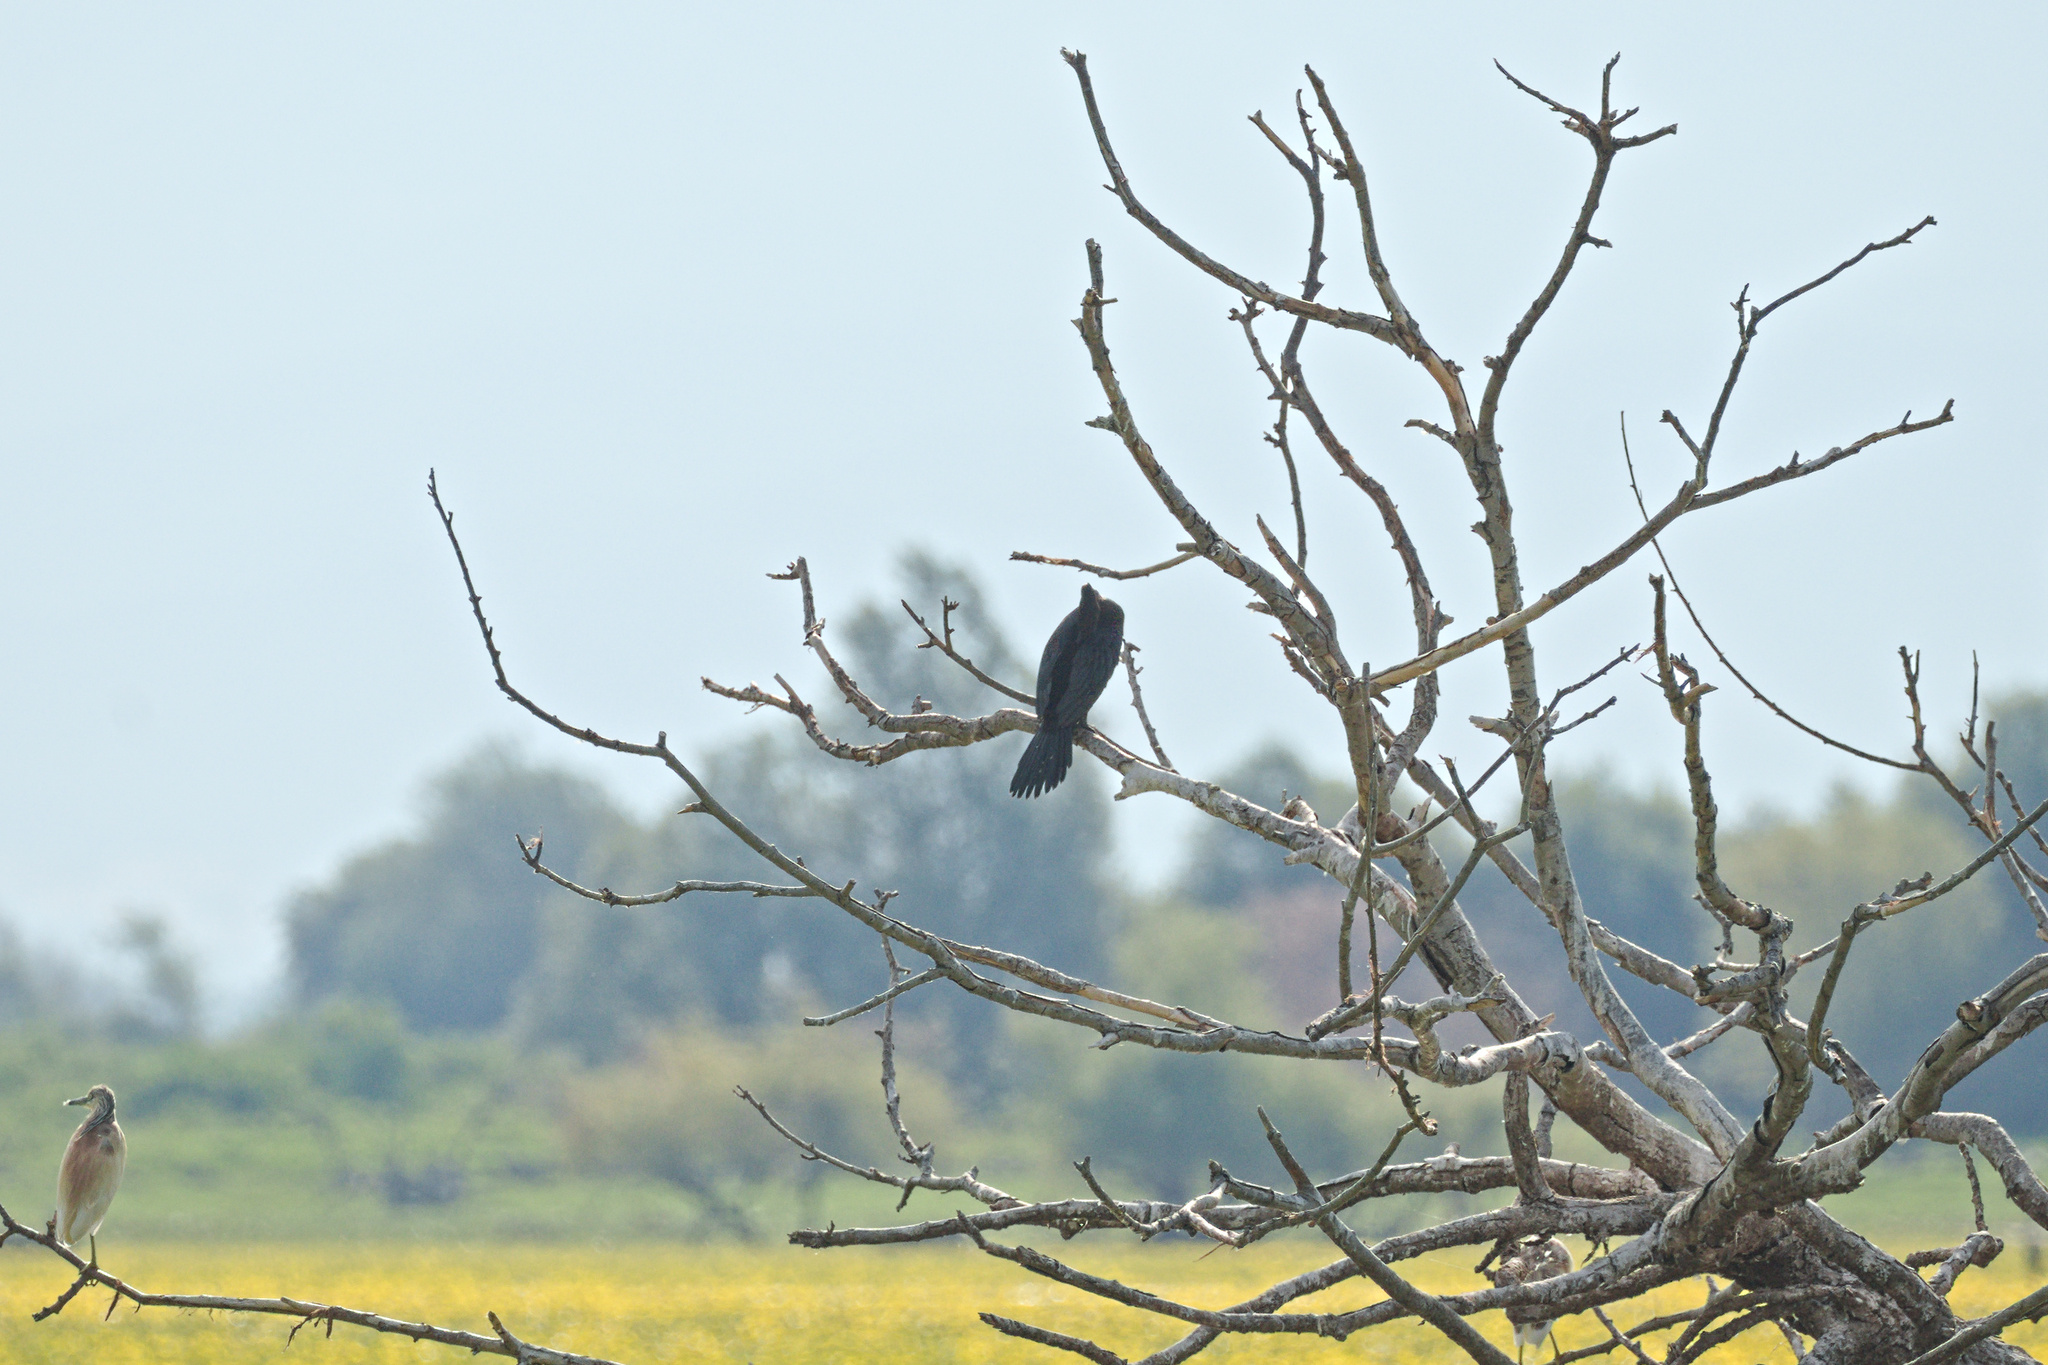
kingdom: Animalia
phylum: Chordata
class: Aves
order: Pelecaniformes
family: Ardeidae
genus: Ardeola
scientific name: Ardeola ralloides
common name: Squacco heron
